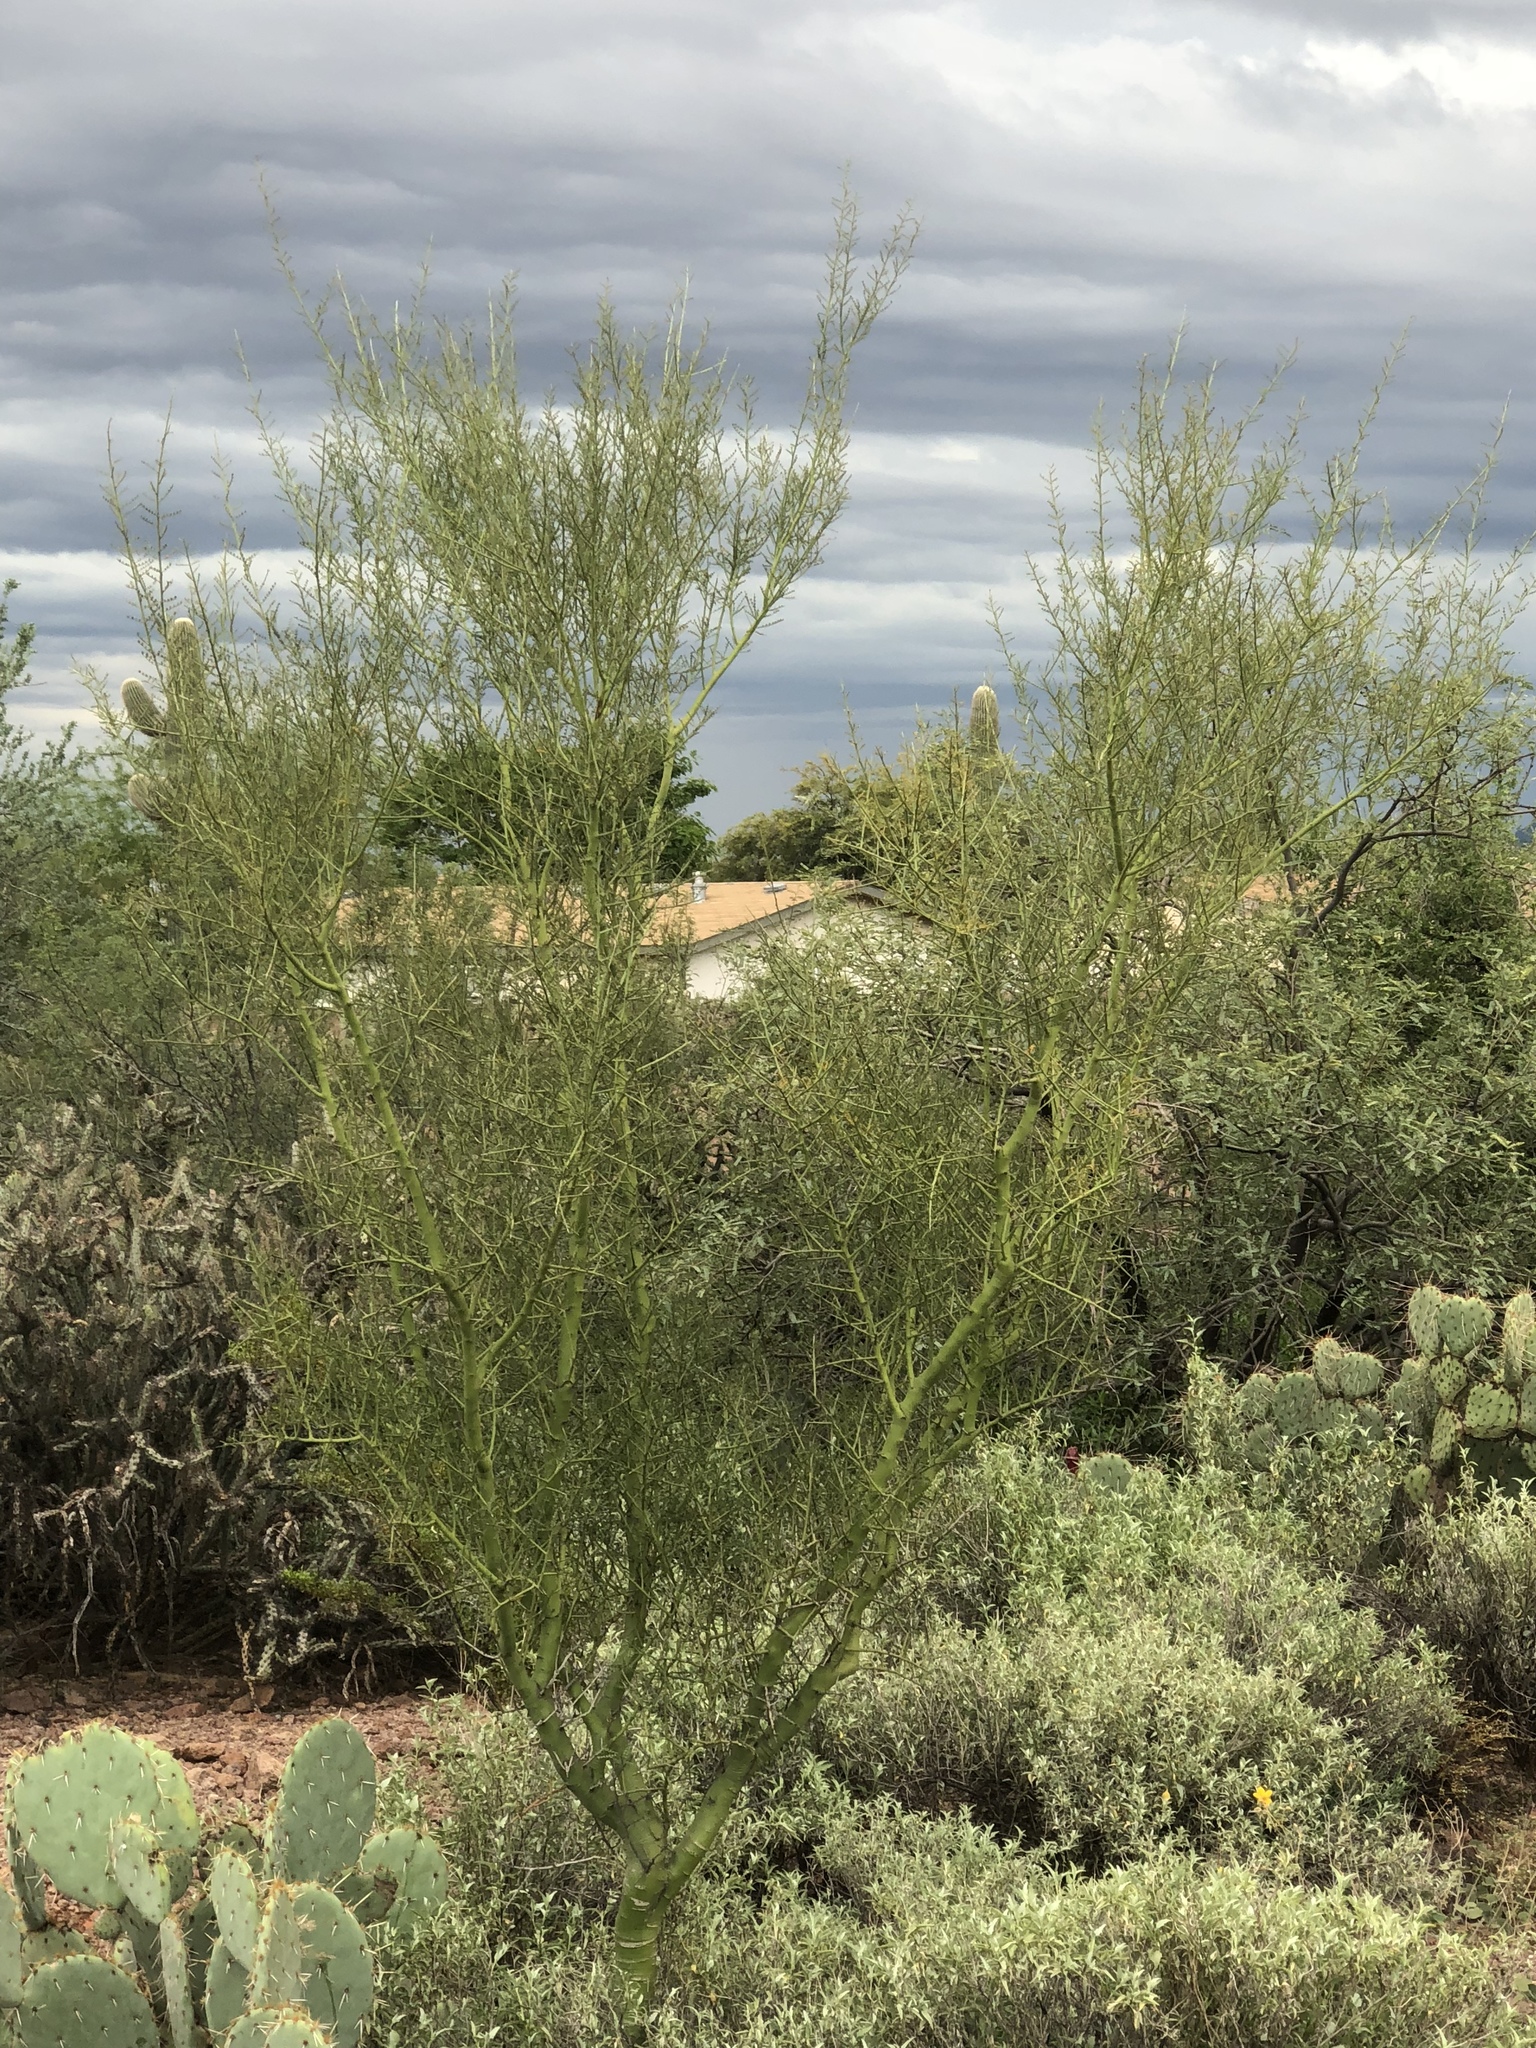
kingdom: Plantae
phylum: Tracheophyta
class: Magnoliopsida
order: Fabales
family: Fabaceae
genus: Parkinsonia
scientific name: Parkinsonia microphylla
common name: Yellow paloverde
